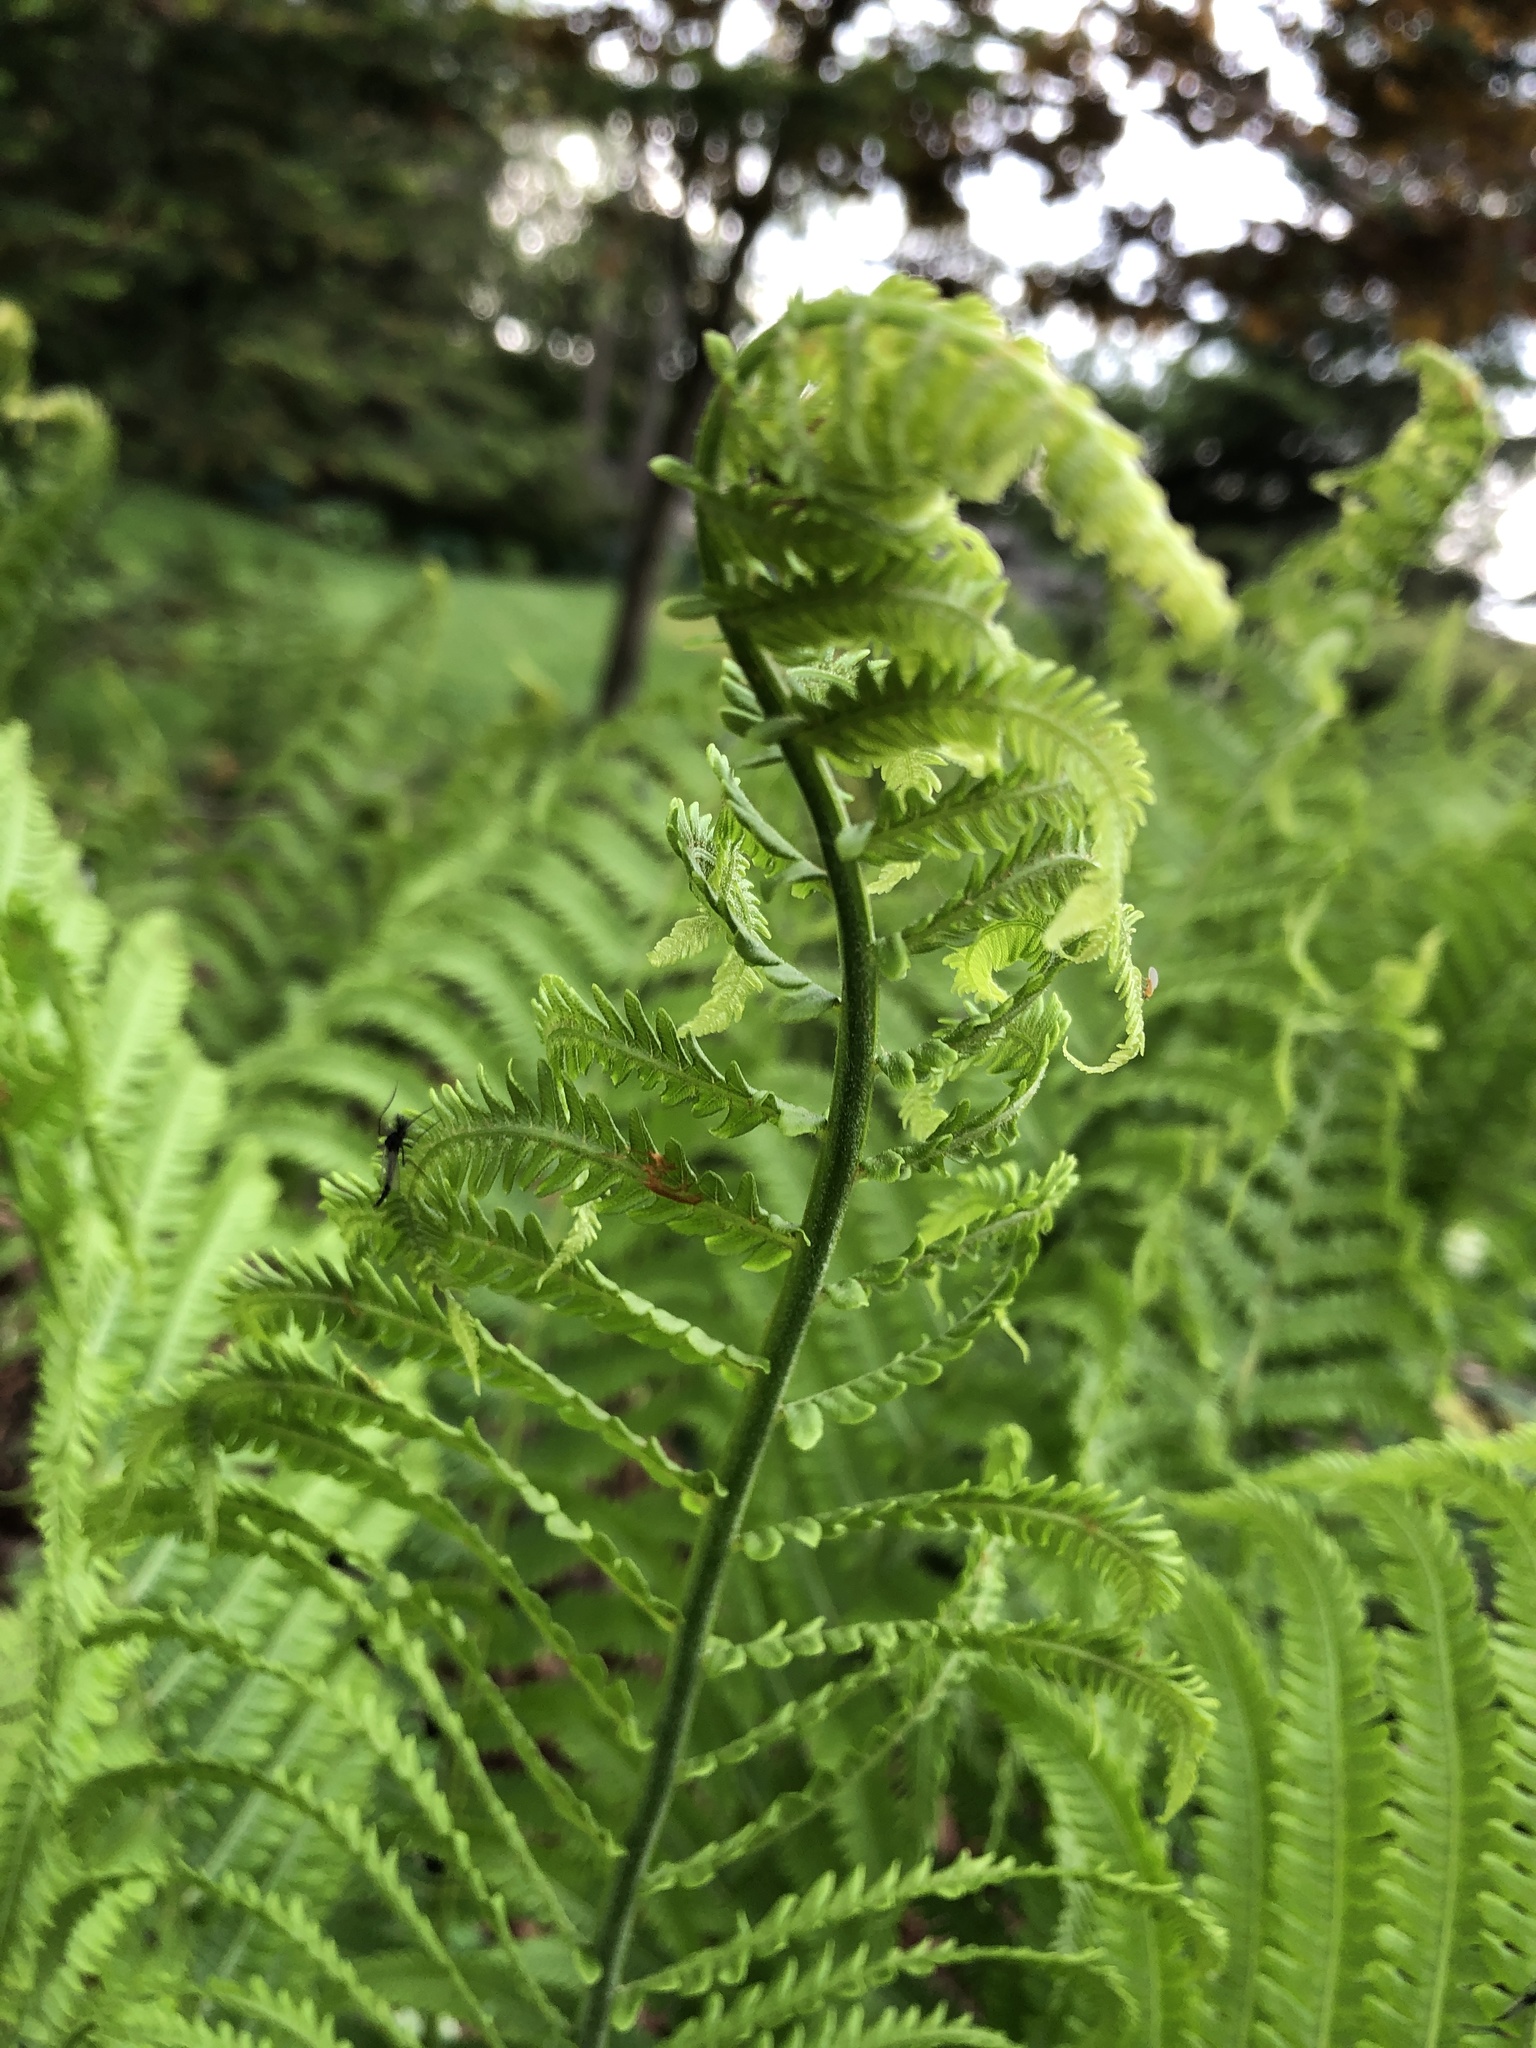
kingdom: Plantae
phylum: Tracheophyta
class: Polypodiopsida
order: Polypodiales
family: Onocleaceae
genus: Matteuccia
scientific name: Matteuccia struthiopteris
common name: Ostrich fern
